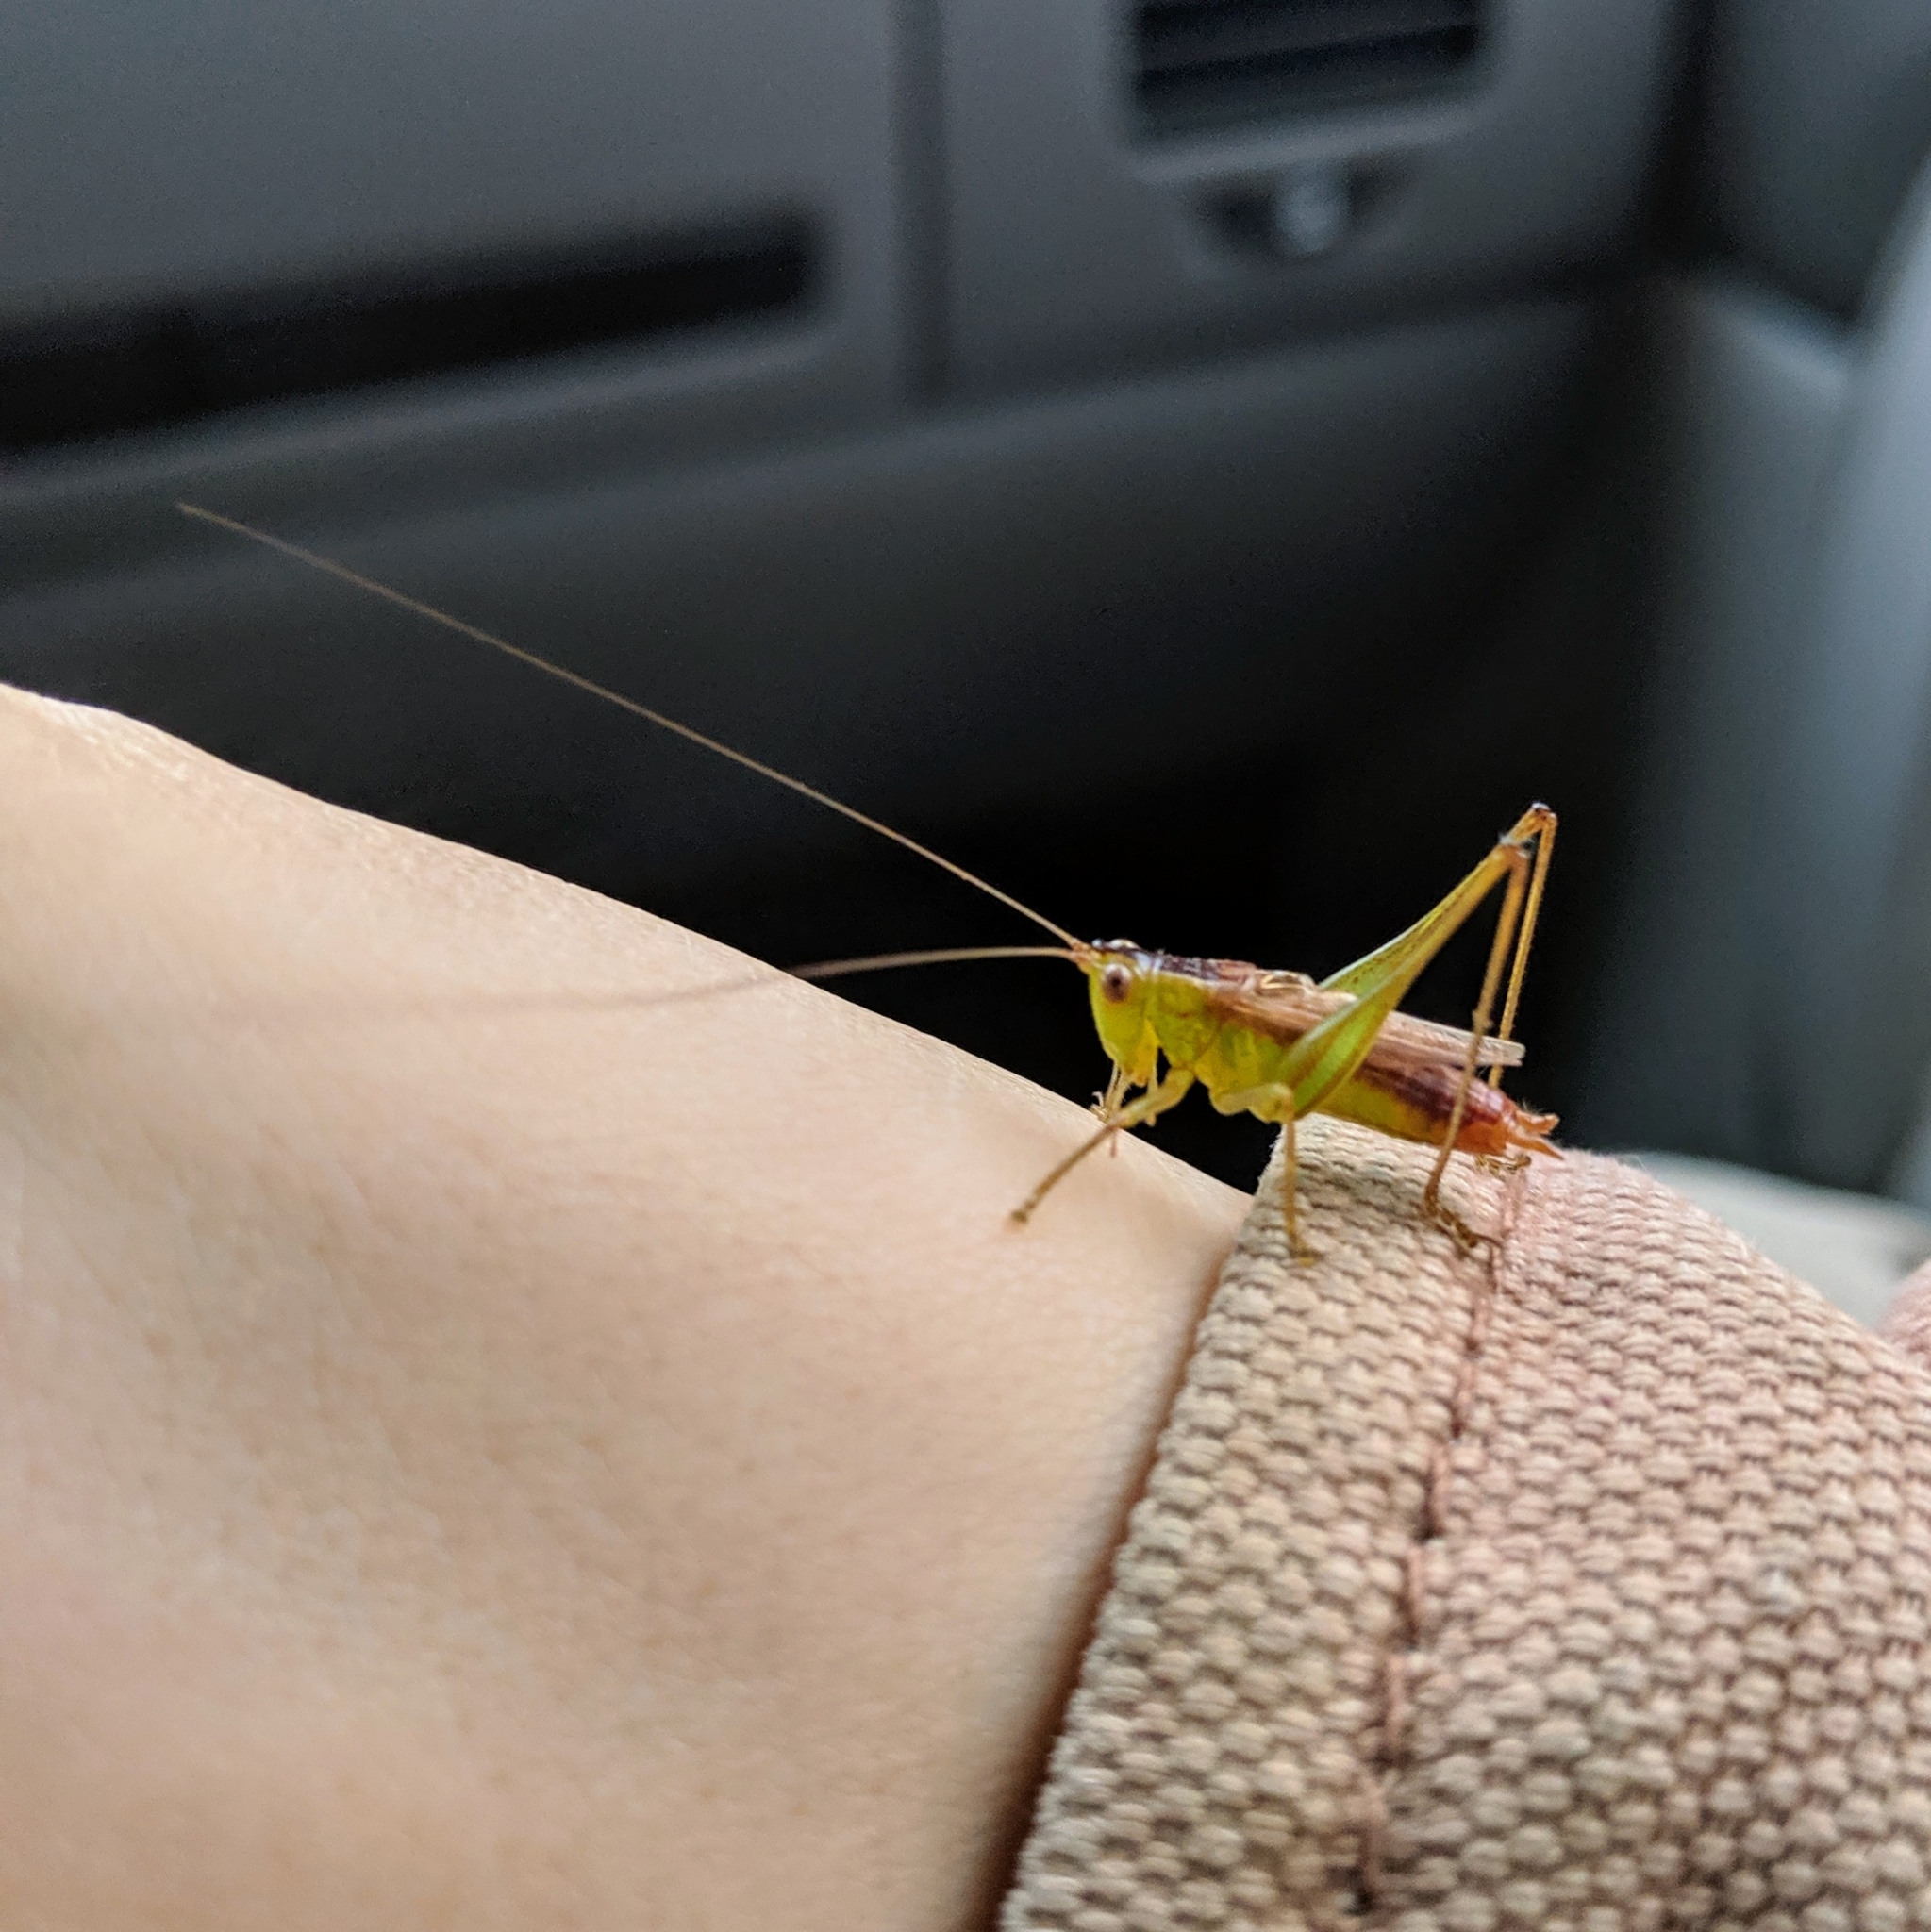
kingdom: Animalia
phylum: Arthropoda
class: Insecta
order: Orthoptera
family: Tettigoniidae
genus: Conocephalus
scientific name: Conocephalus brevipennis
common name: Short-winged meadow katydid
